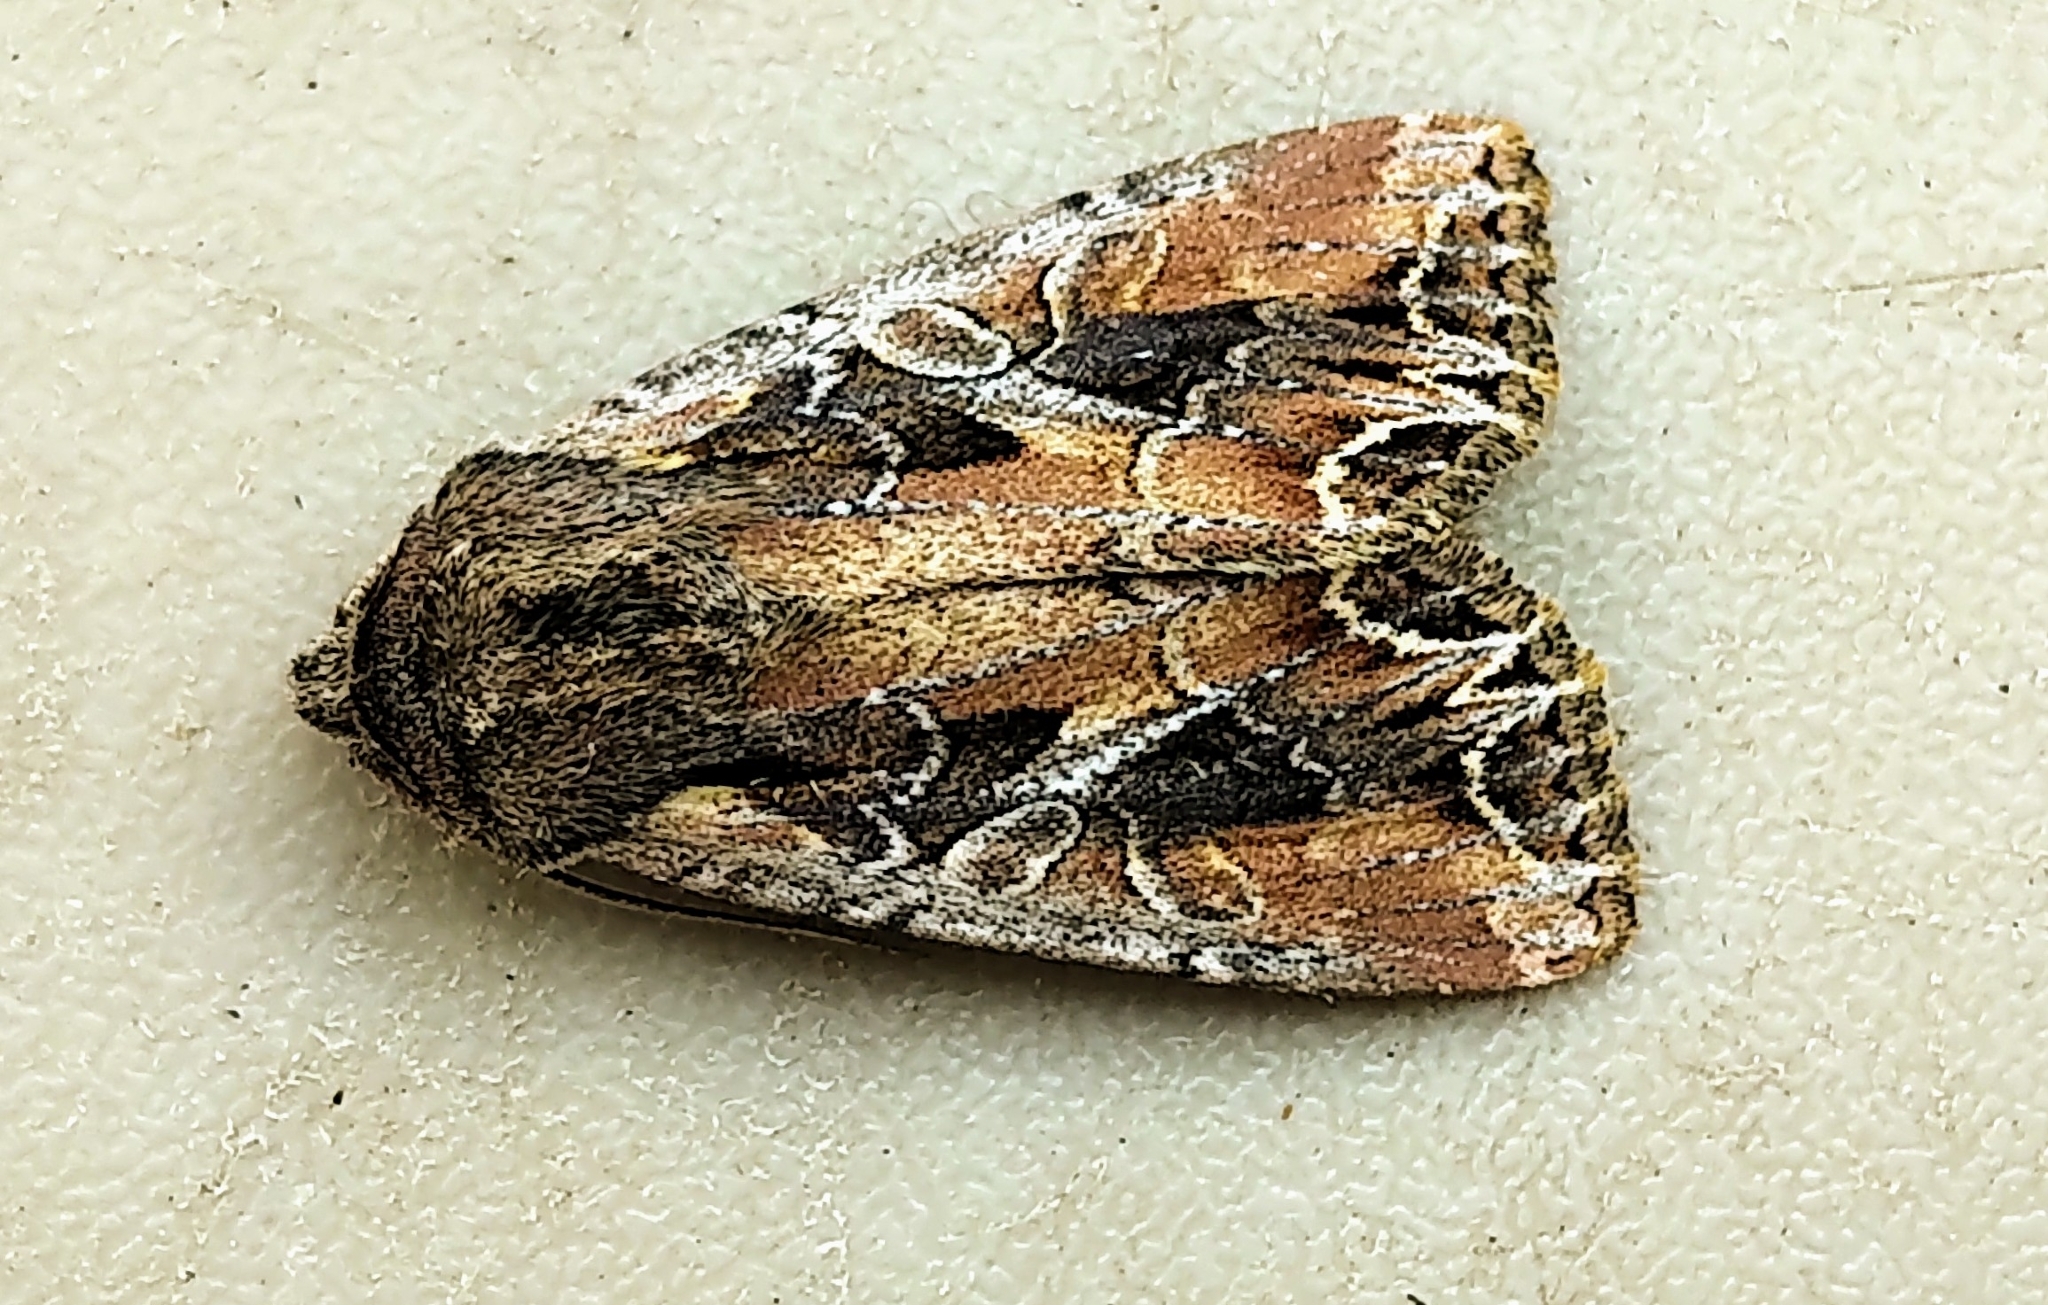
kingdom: Animalia
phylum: Arthropoda
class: Insecta
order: Lepidoptera
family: Noctuidae
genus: Lacanobia
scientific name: Lacanobia nevadae
